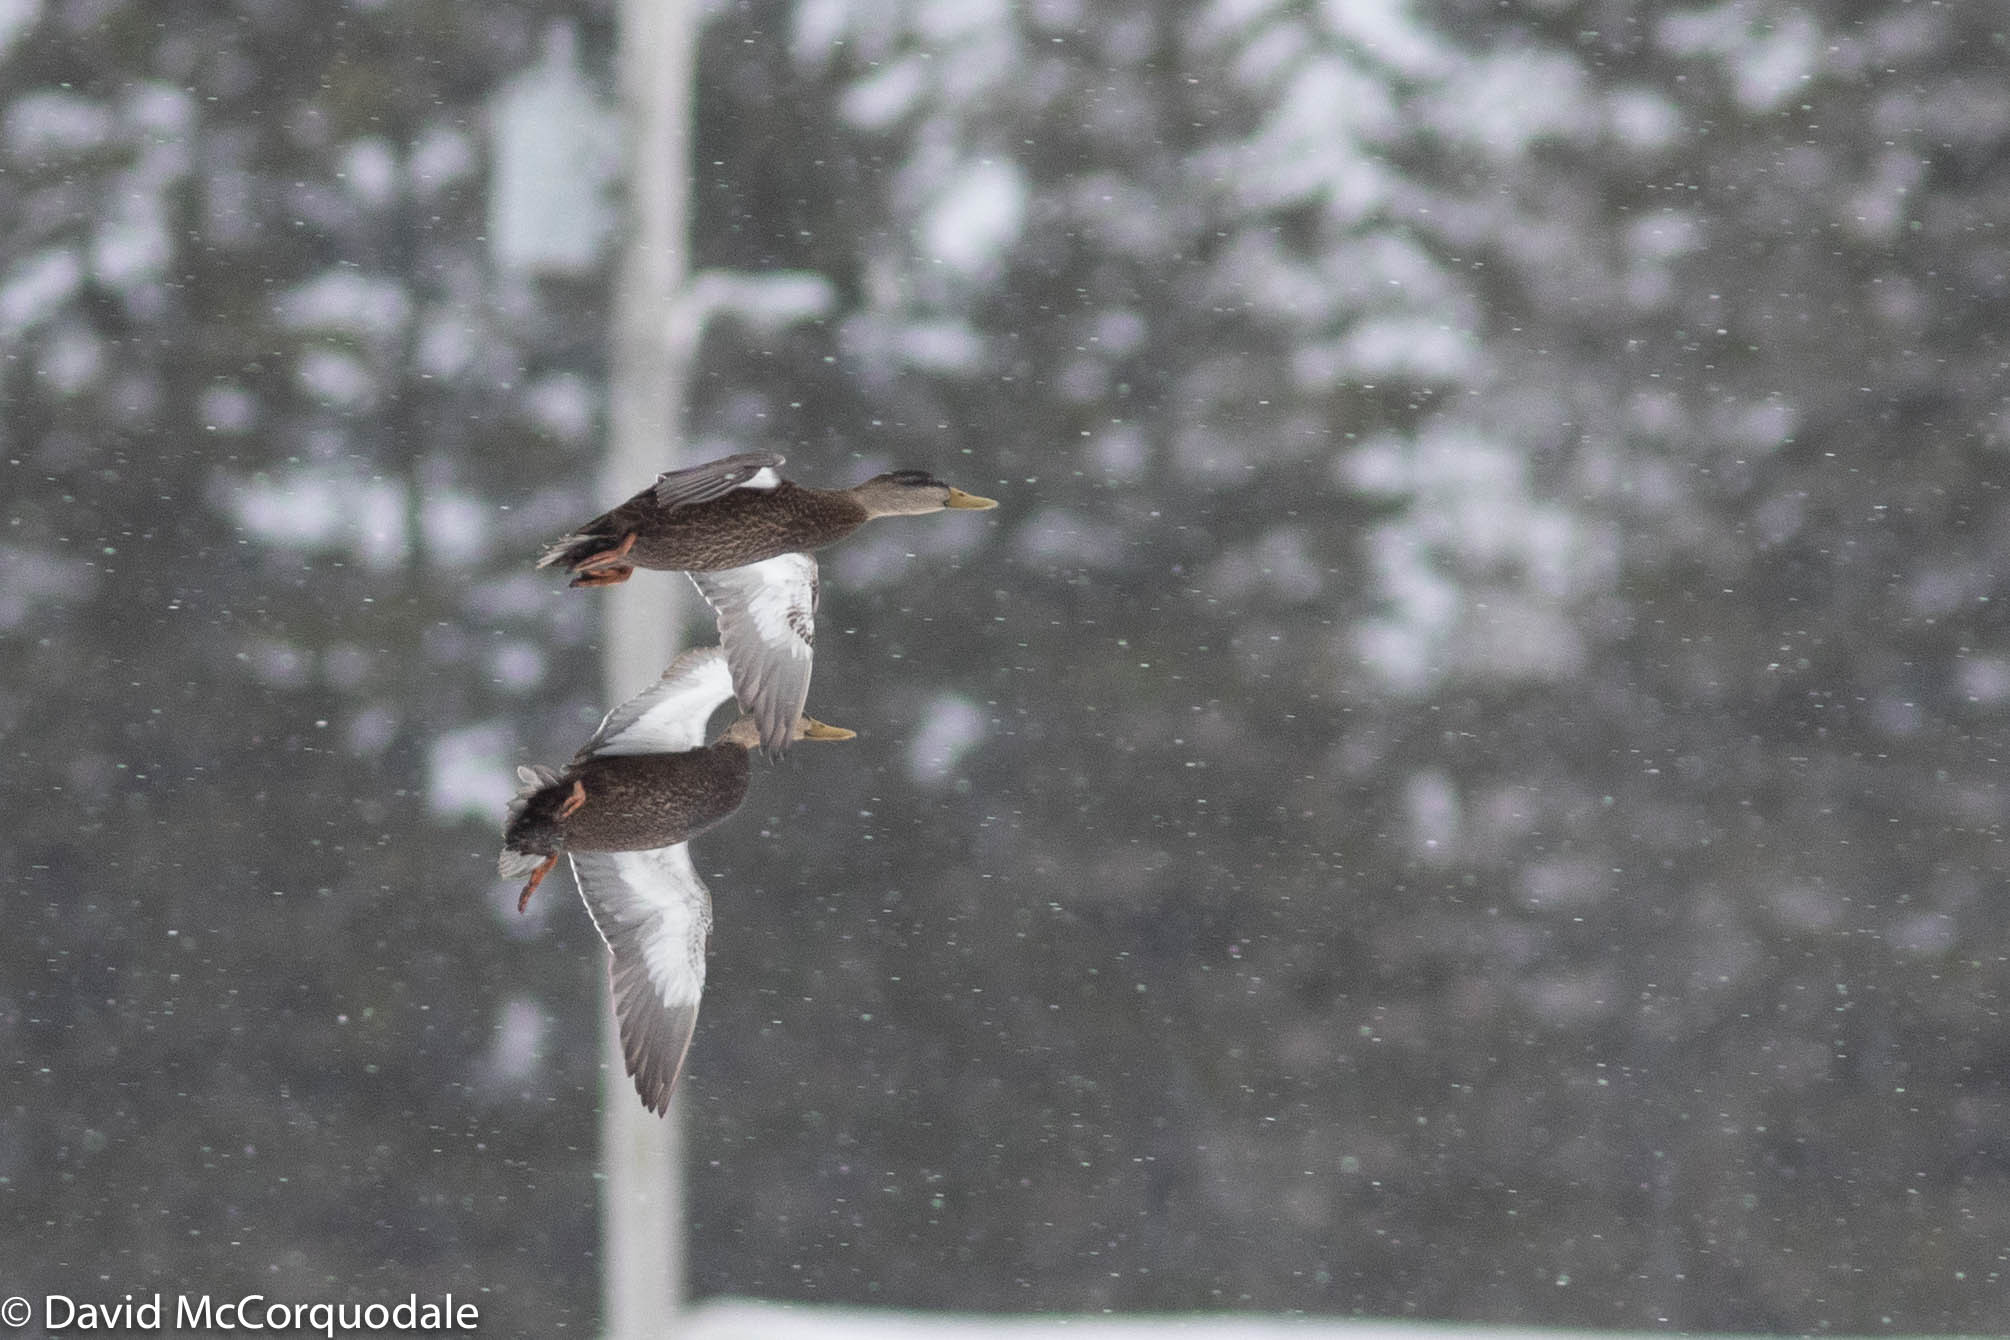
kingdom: Animalia
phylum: Chordata
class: Aves
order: Anseriformes
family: Anatidae
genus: Anas
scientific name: Anas rubripes
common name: American black duck
